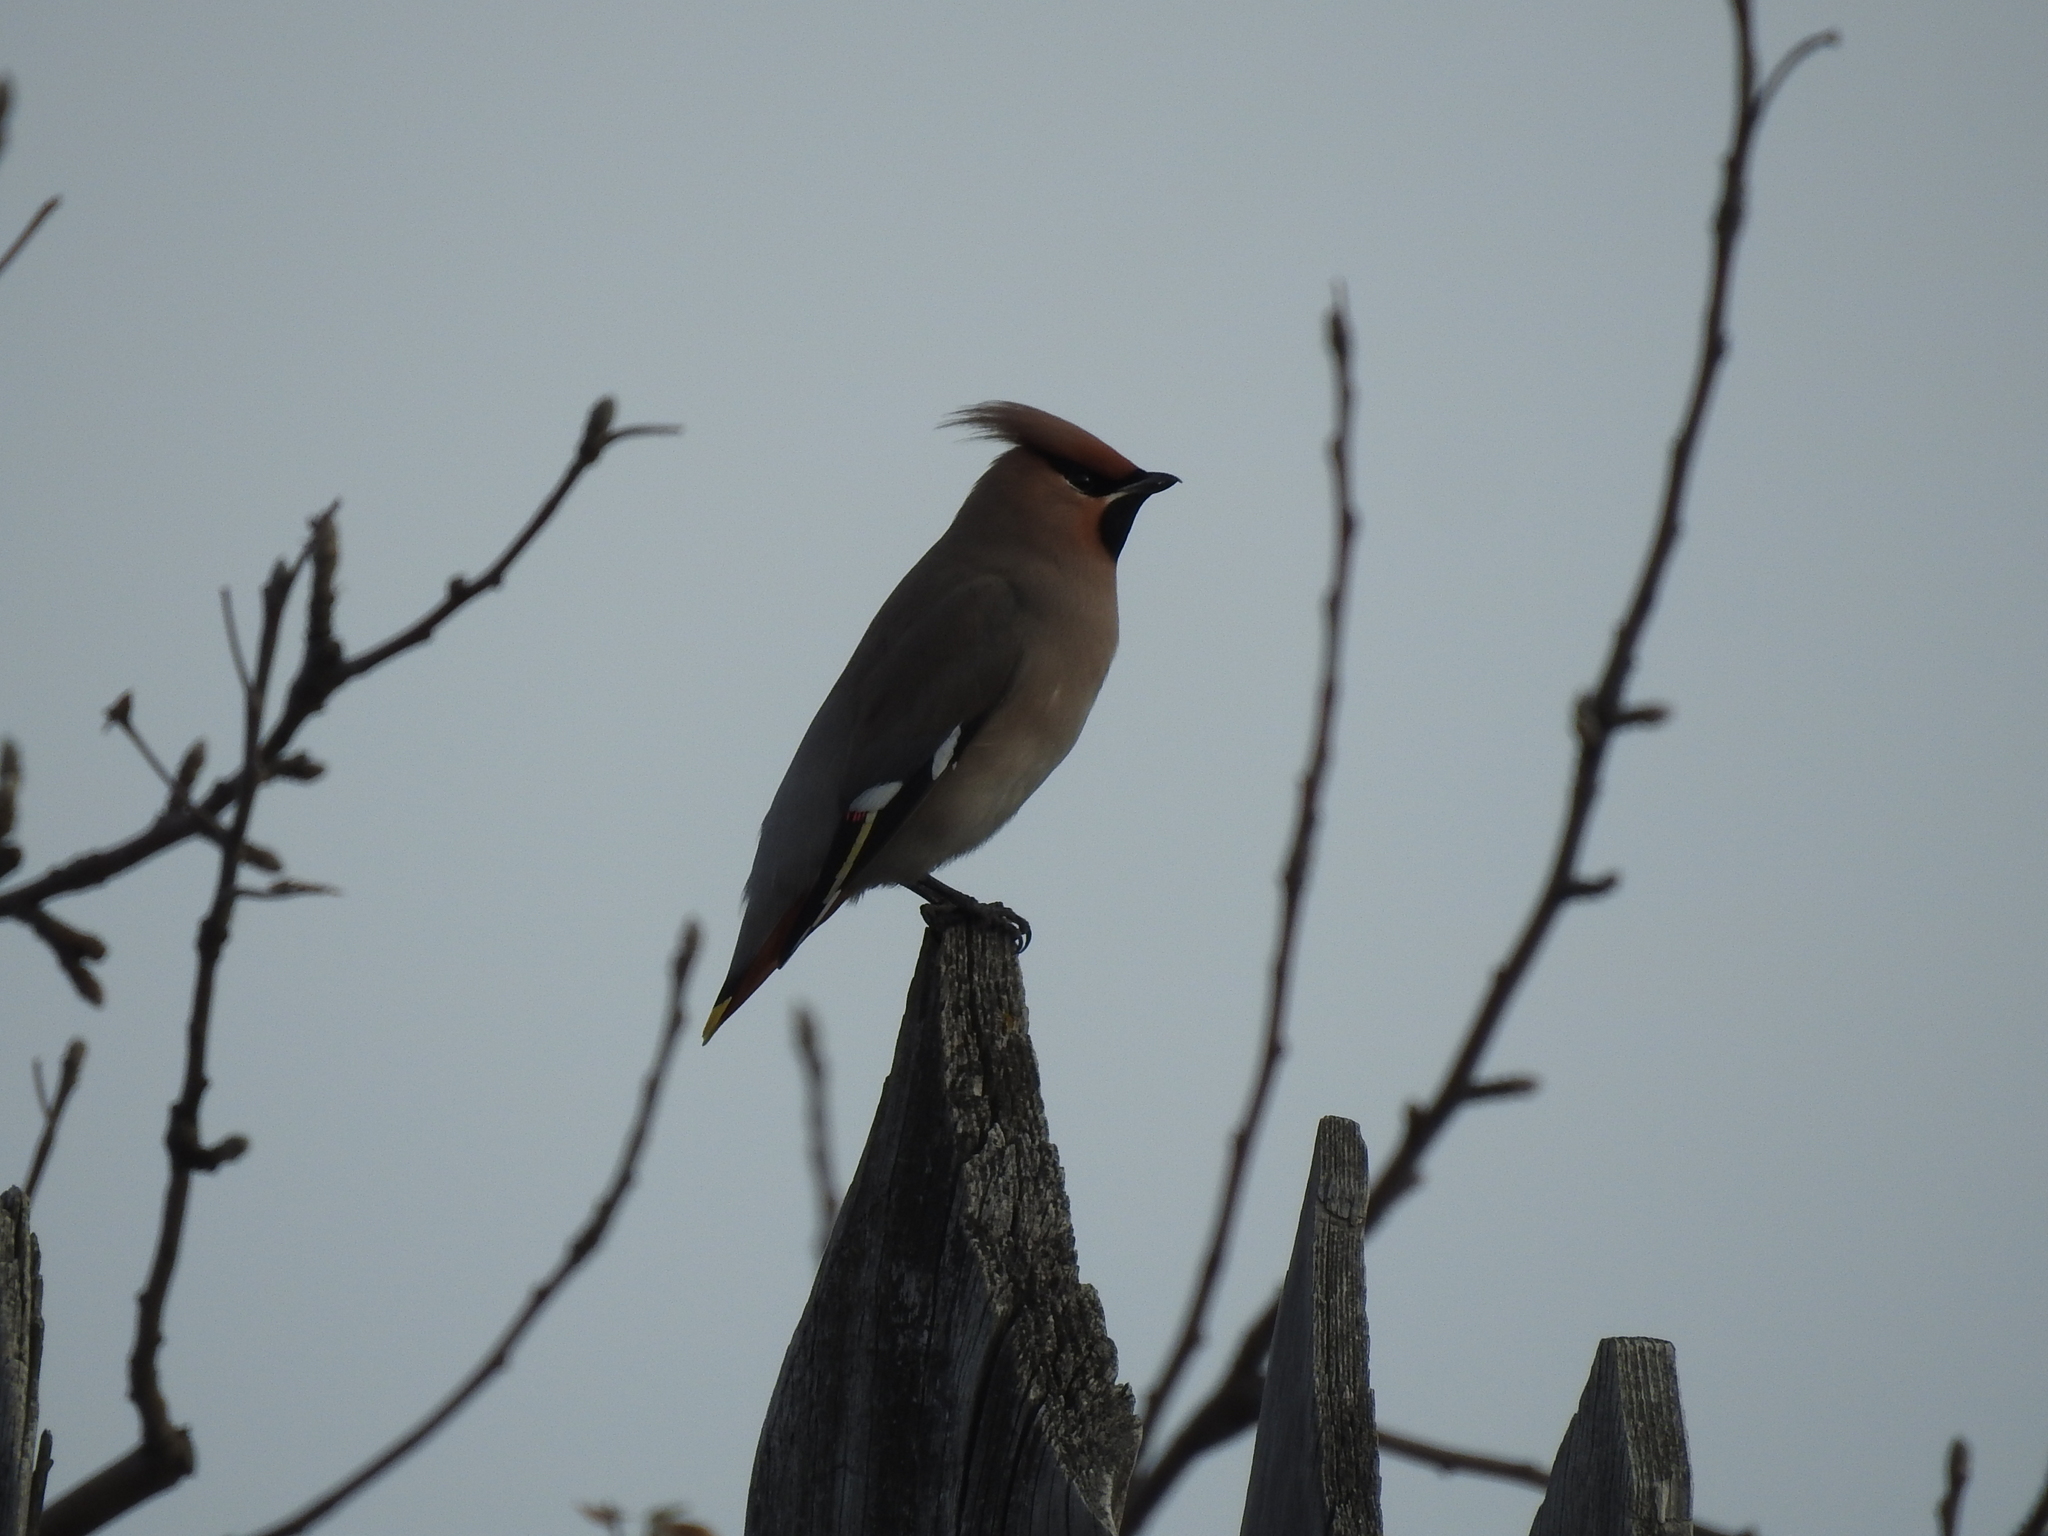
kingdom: Animalia
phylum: Chordata
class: Aves
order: Passeriformes
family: Bombycillidae
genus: Bombycilla
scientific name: Bombycilla garrulus
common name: Bohemian waxwing
